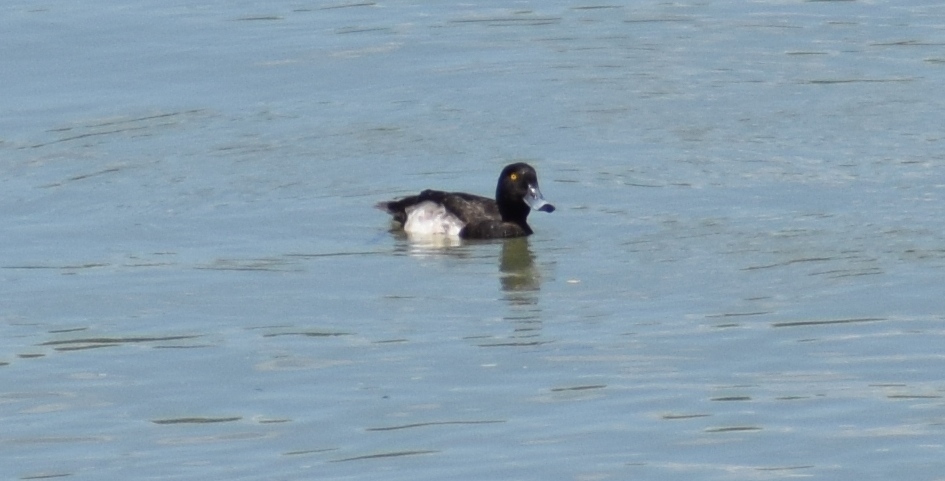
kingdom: Animalia
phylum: Chordata
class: Aves
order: Anseriformes
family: Anatidae
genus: Aythya
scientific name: Aythya fuligula
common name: Tufted duck
